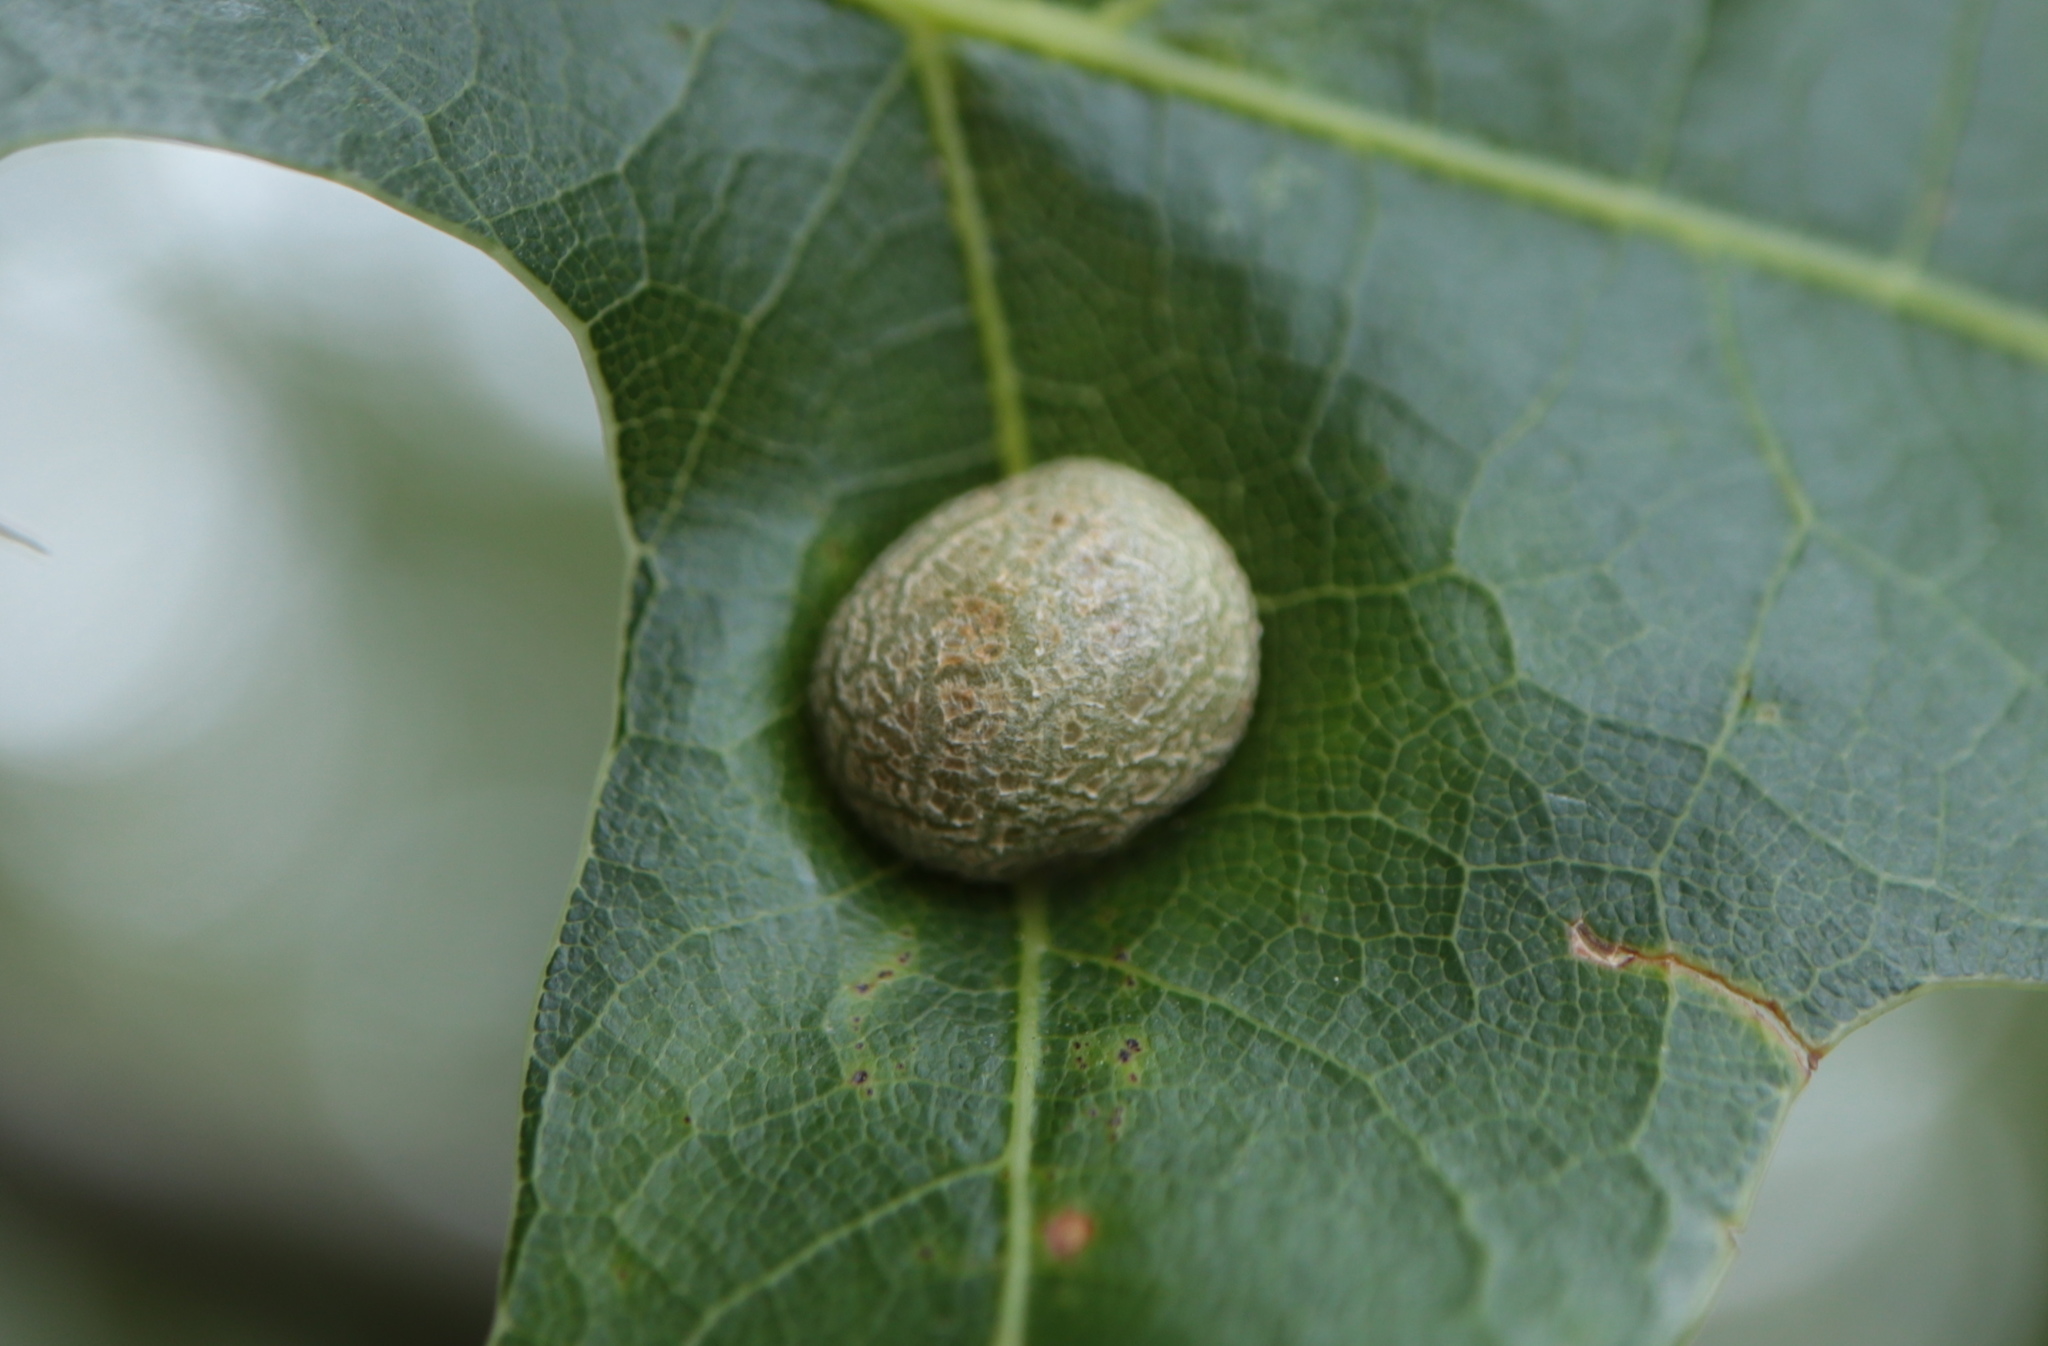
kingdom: Animalia
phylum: Arthropoda
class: Insecta
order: Diptera
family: Cecidomyiidae
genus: Polystepha
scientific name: Polystepha pilulae
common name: Oak leaf gall midge
